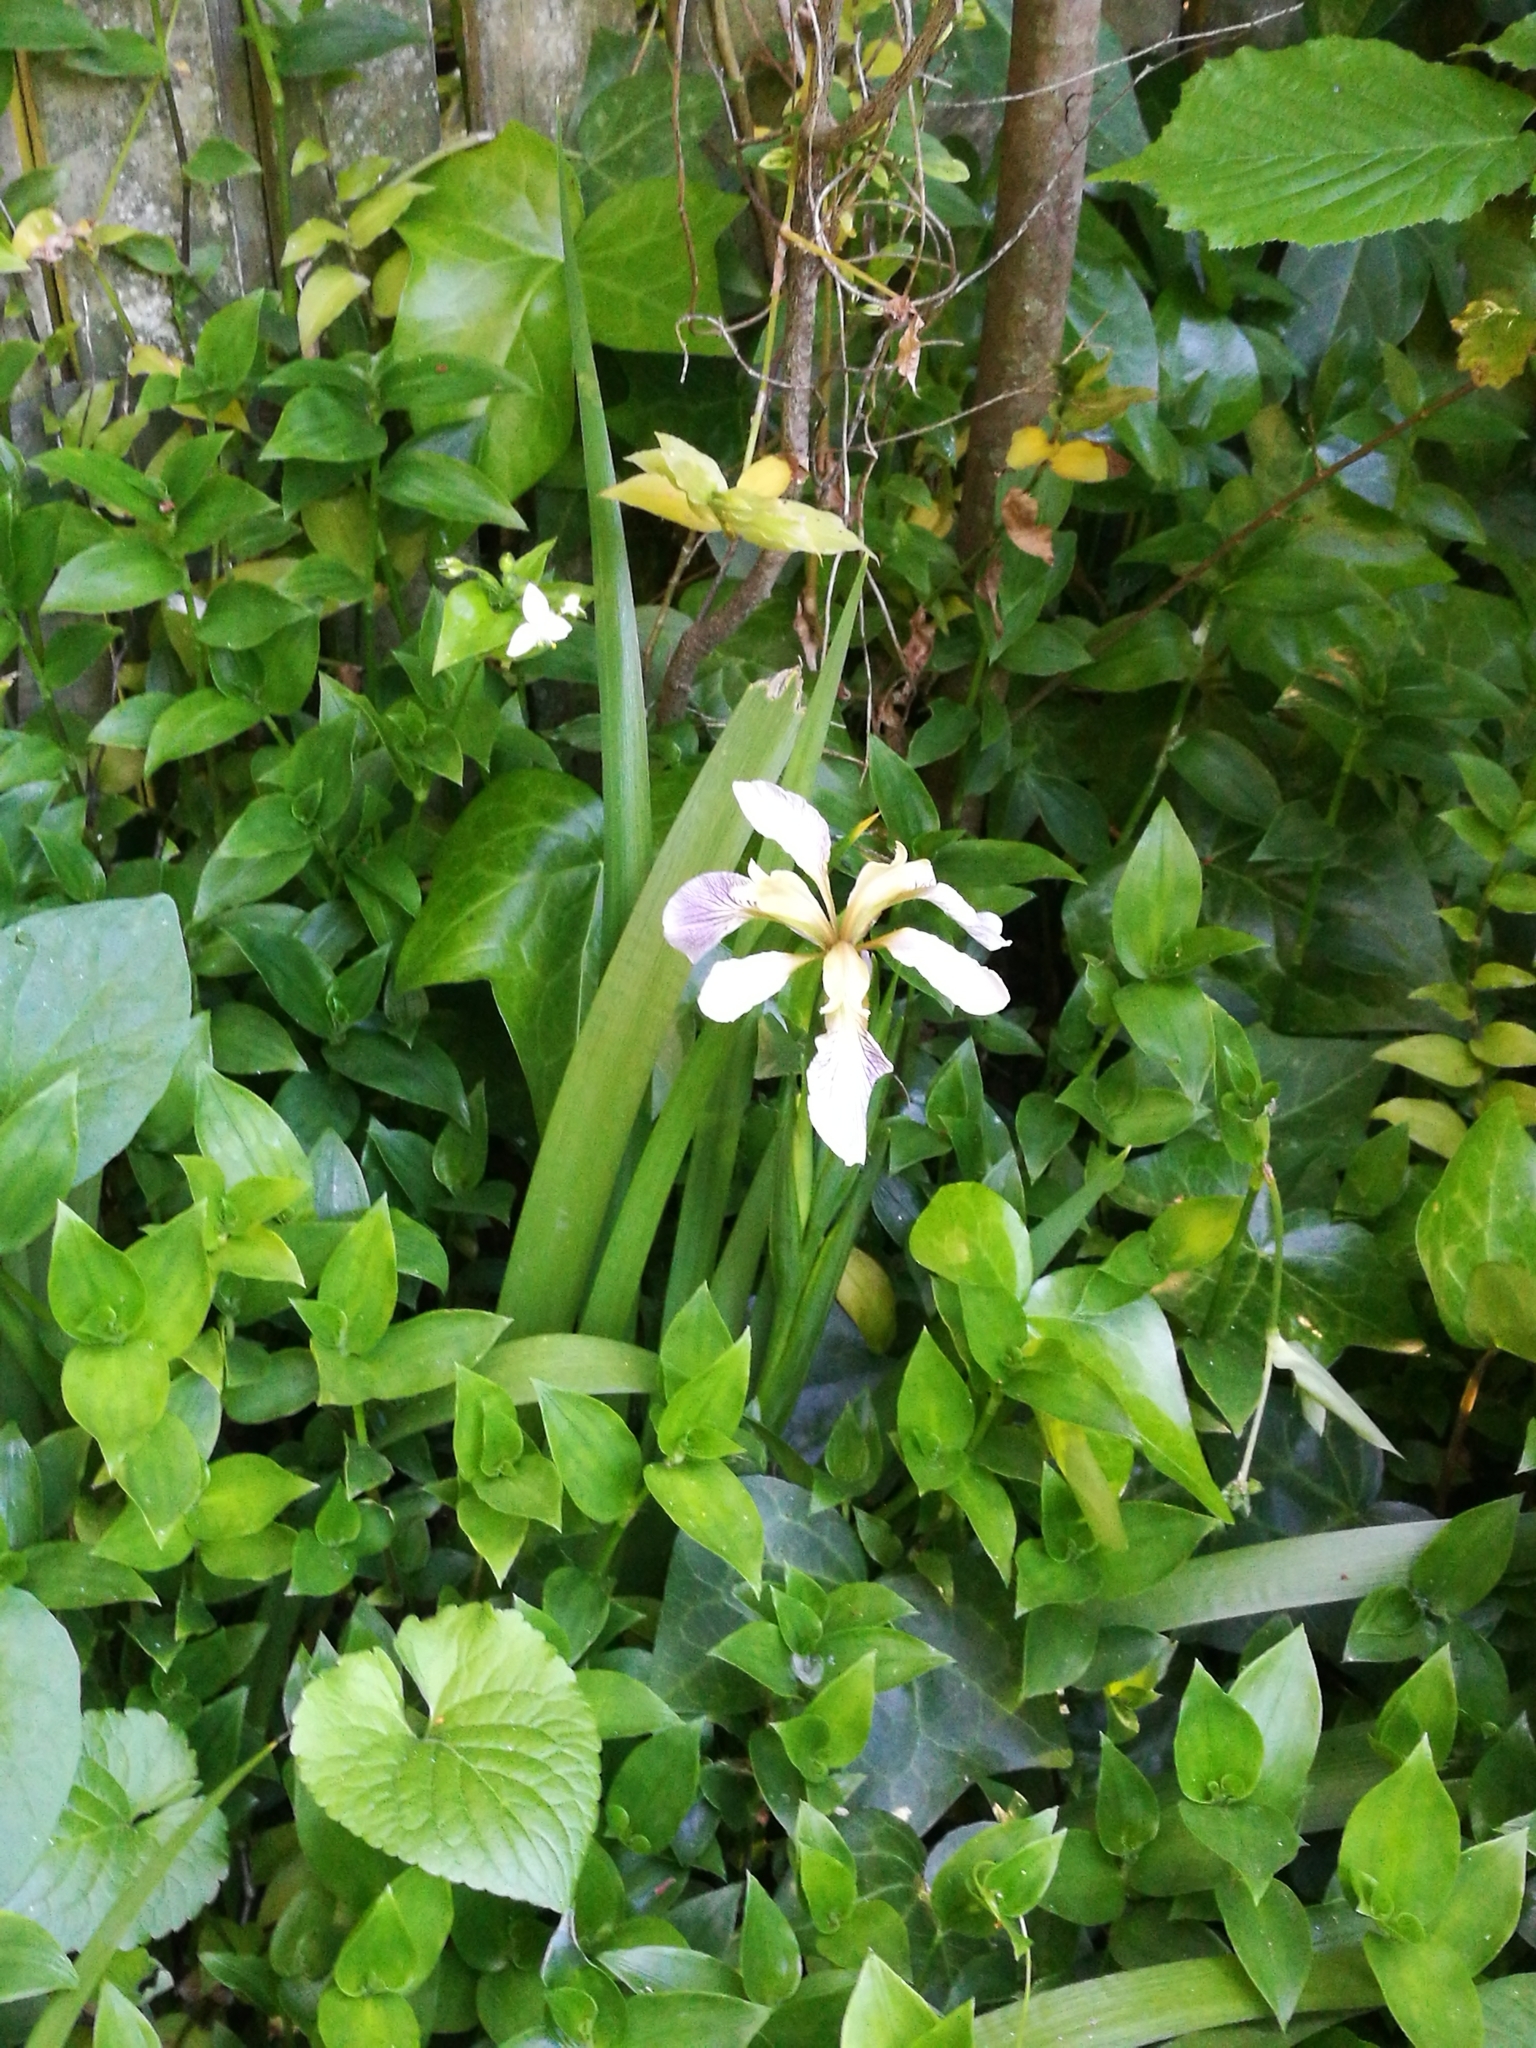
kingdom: Plantae
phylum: Tracheophyta
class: Liliopsida
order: Asparagales
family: Iridaceae
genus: Iris
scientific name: Iris foetidissima
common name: Stinking iris
